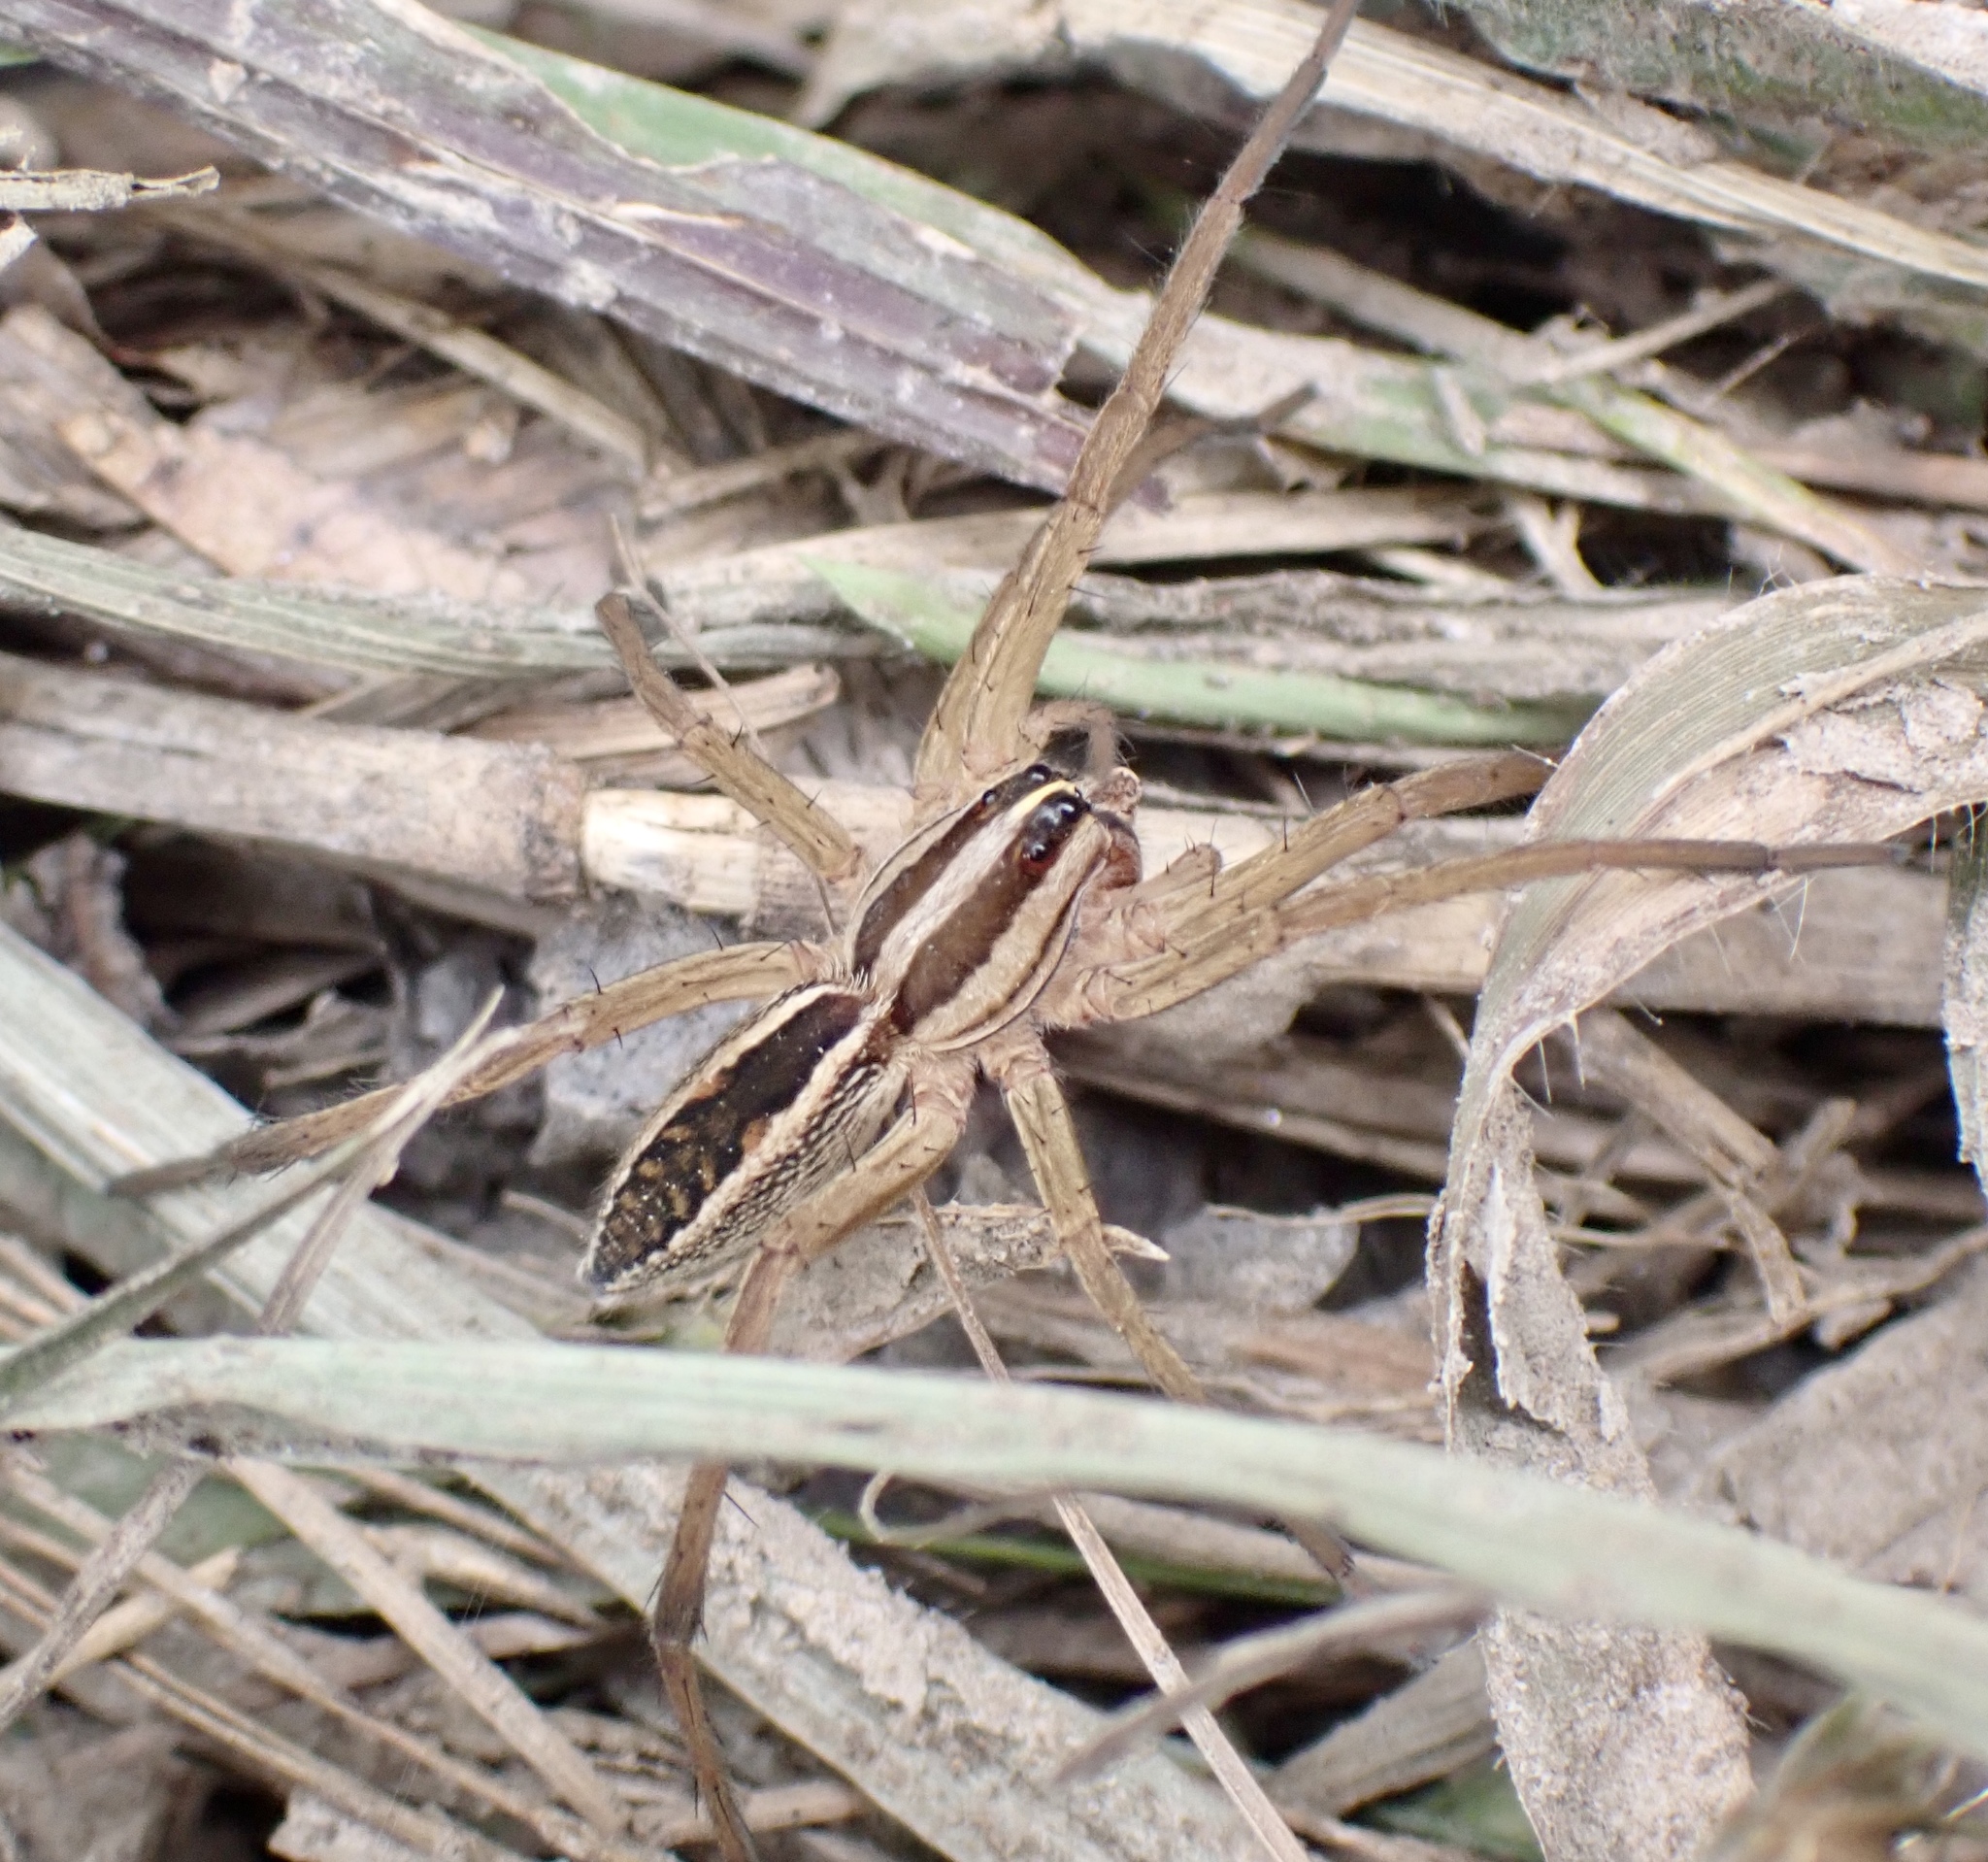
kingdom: Animalia
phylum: Arthropoda
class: Arachnida
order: Araneae
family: Lycosidae
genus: Rabidosa
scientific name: Rabidosa rabida
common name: Rabid wolf spider
